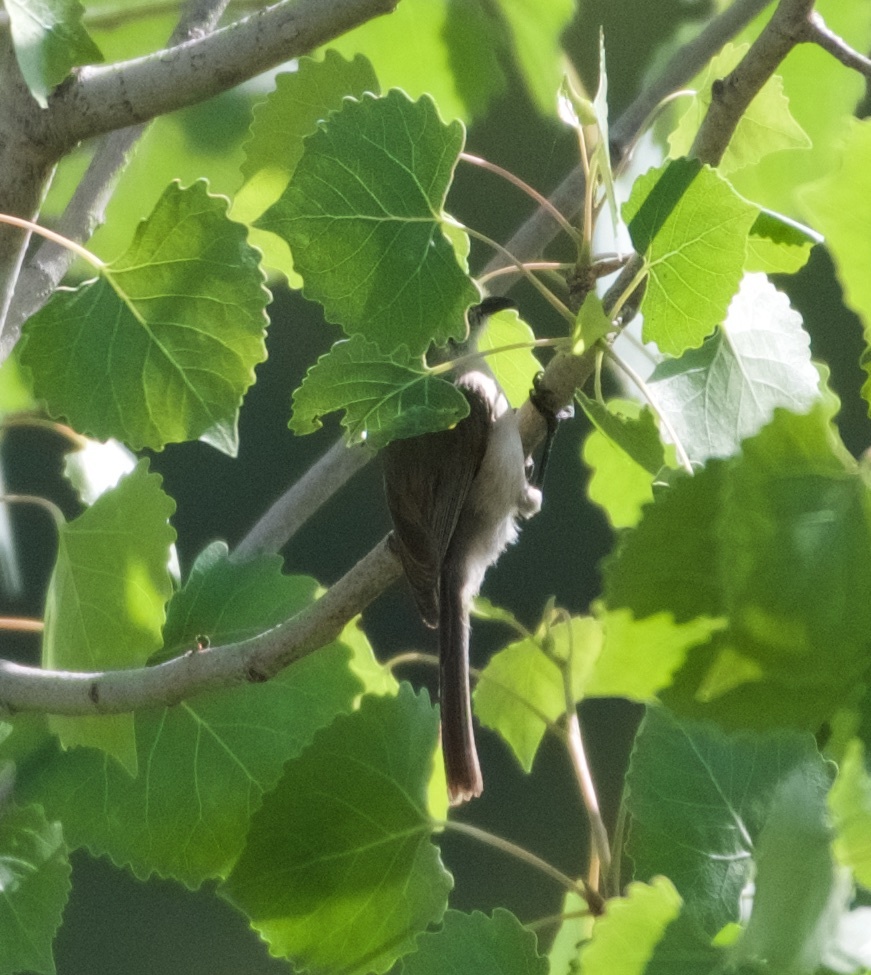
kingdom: Animalia
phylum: Chordata
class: Aves
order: Passeriformes
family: Aegithalidae
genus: Psaltriparus
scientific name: Psaltriparus minimus
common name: American bushtit
